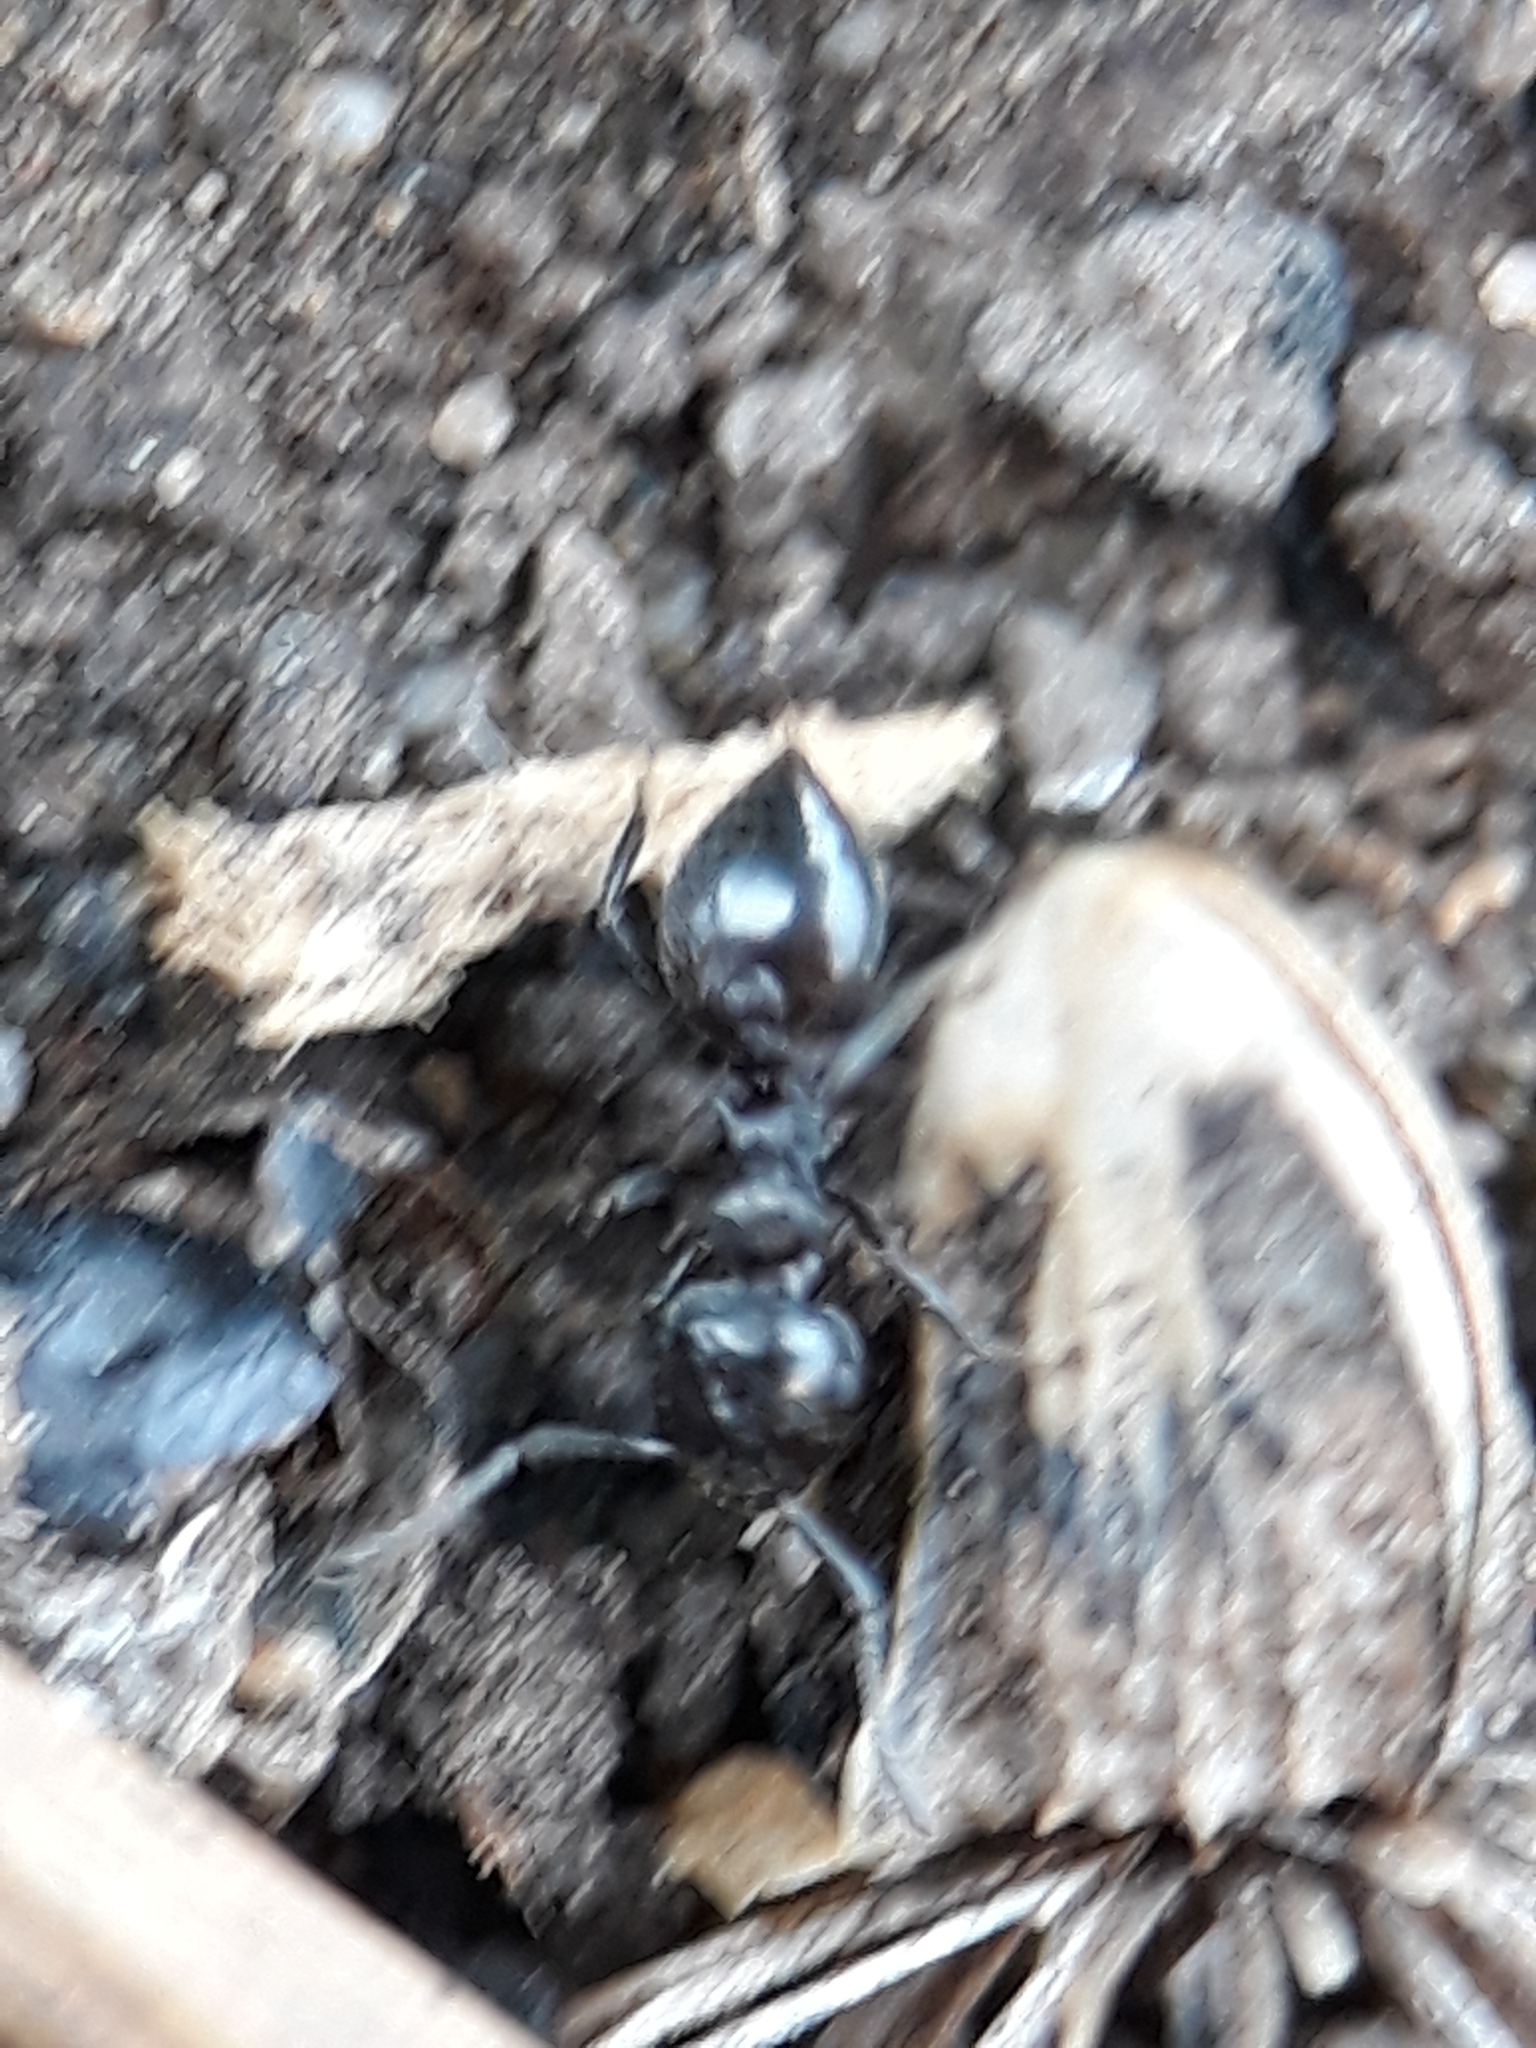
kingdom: Animalia
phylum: Arthropoda
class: Insecta
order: Hymenoptera
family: Formicidae
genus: Crematogaster
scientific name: Crematogaster laestrygon
